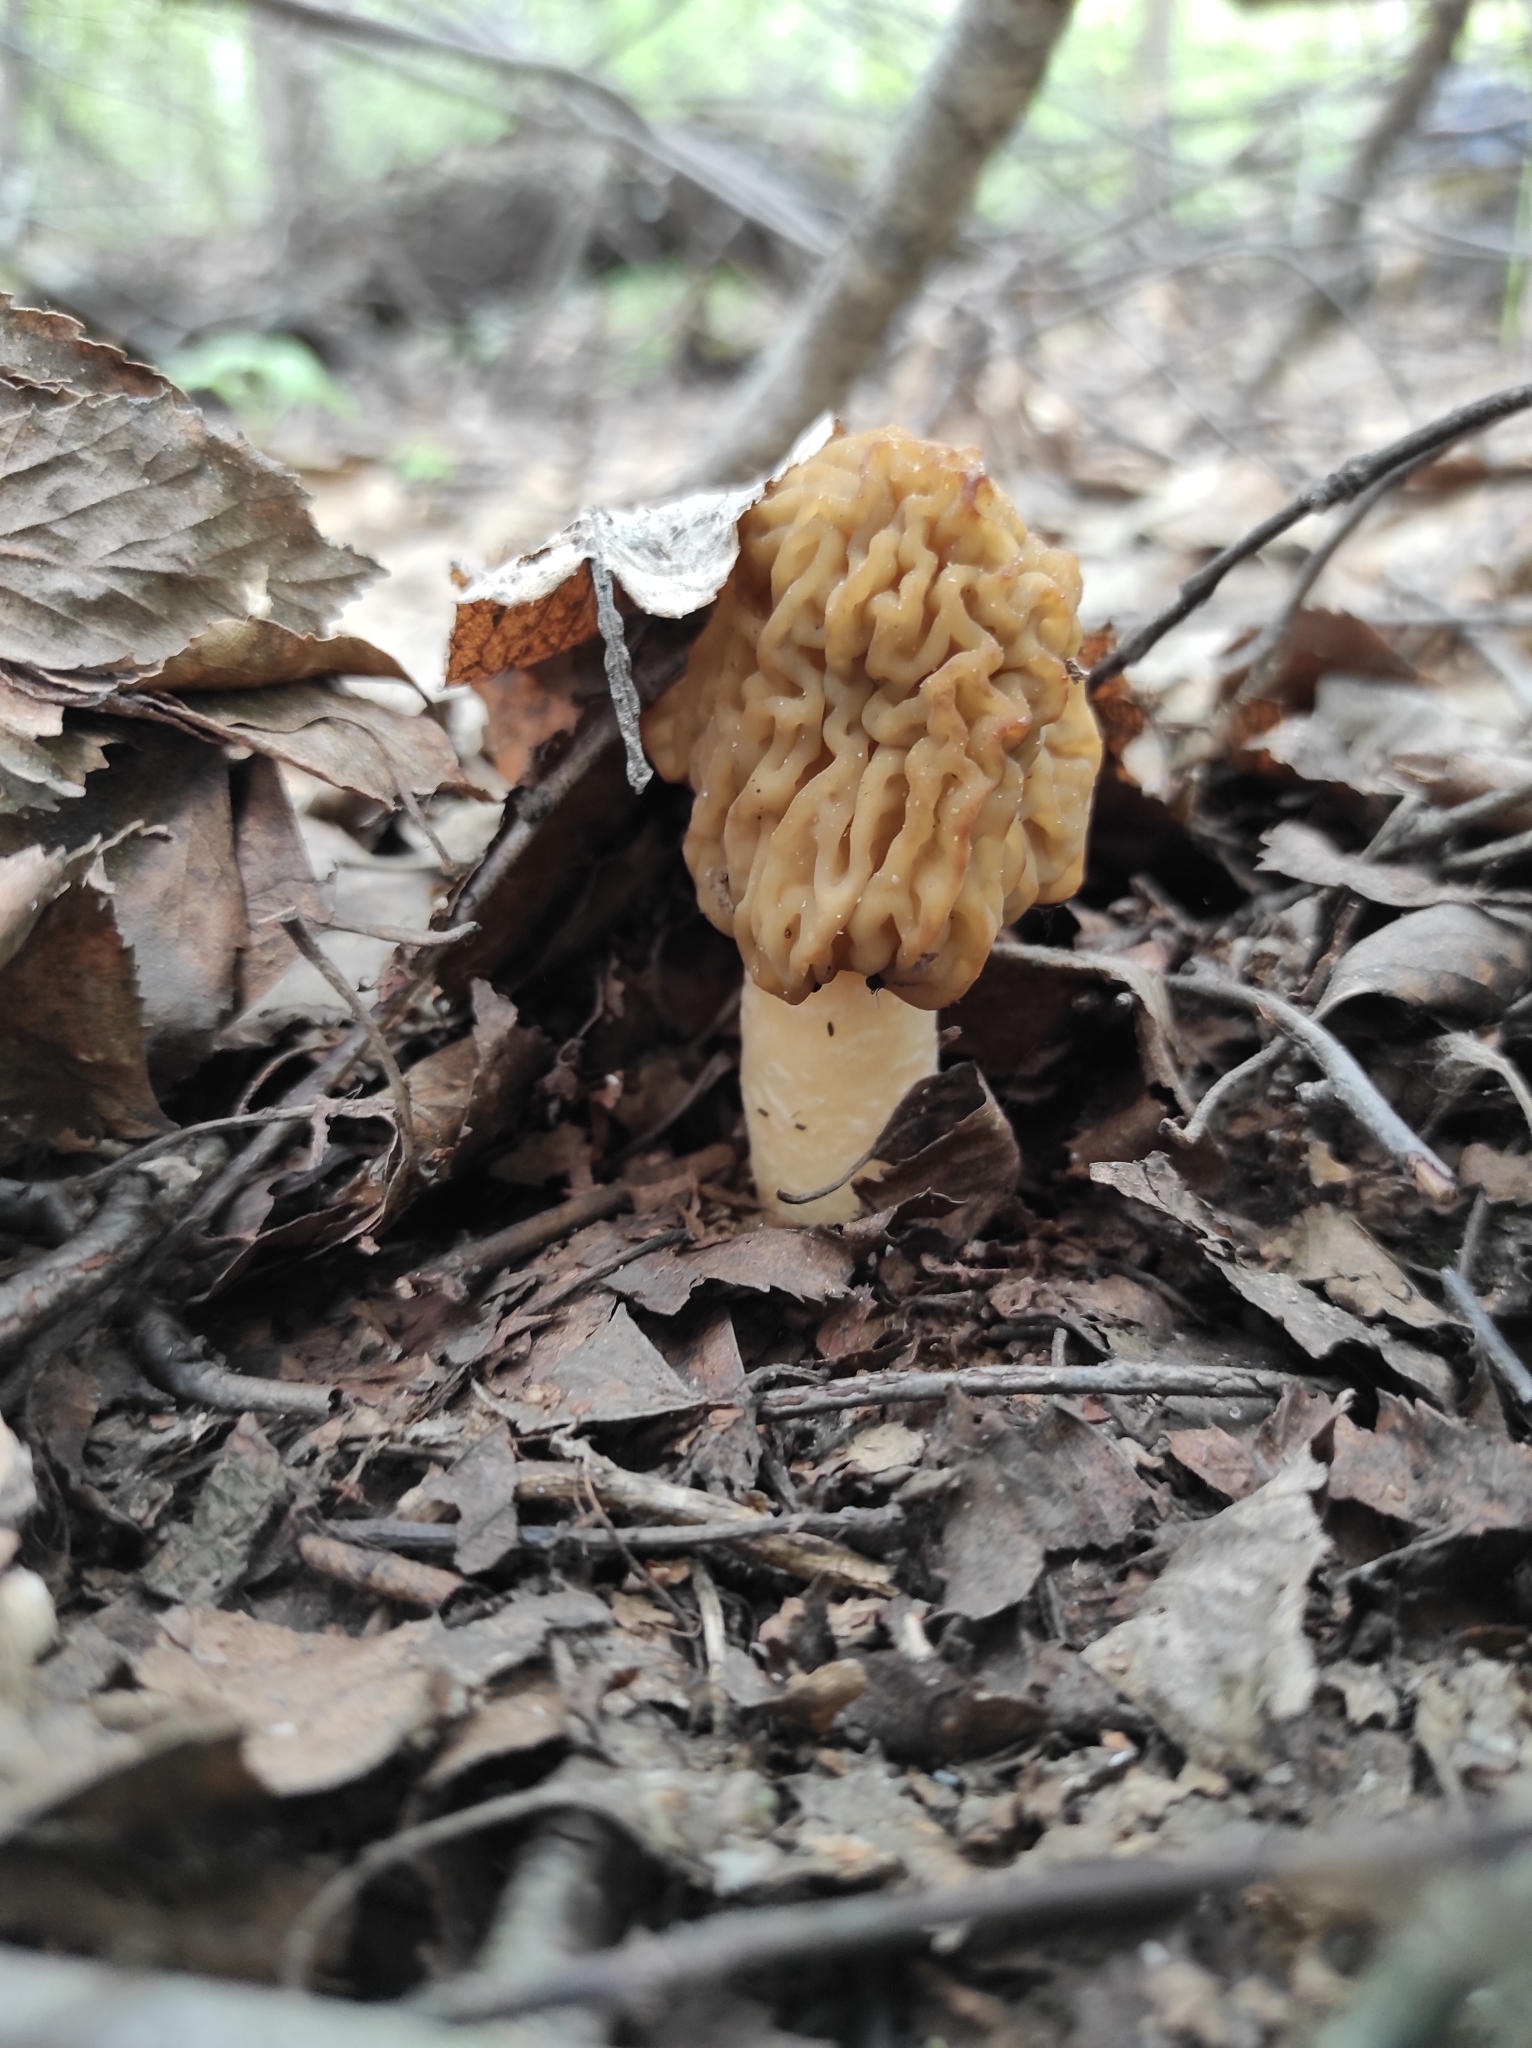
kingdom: Fungi
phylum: Ascomycota
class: Pezizomycetes
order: Pezizales
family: Morchellaceae
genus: Verpa
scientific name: Verpa bohemica
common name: Wrinkled thimble morel
